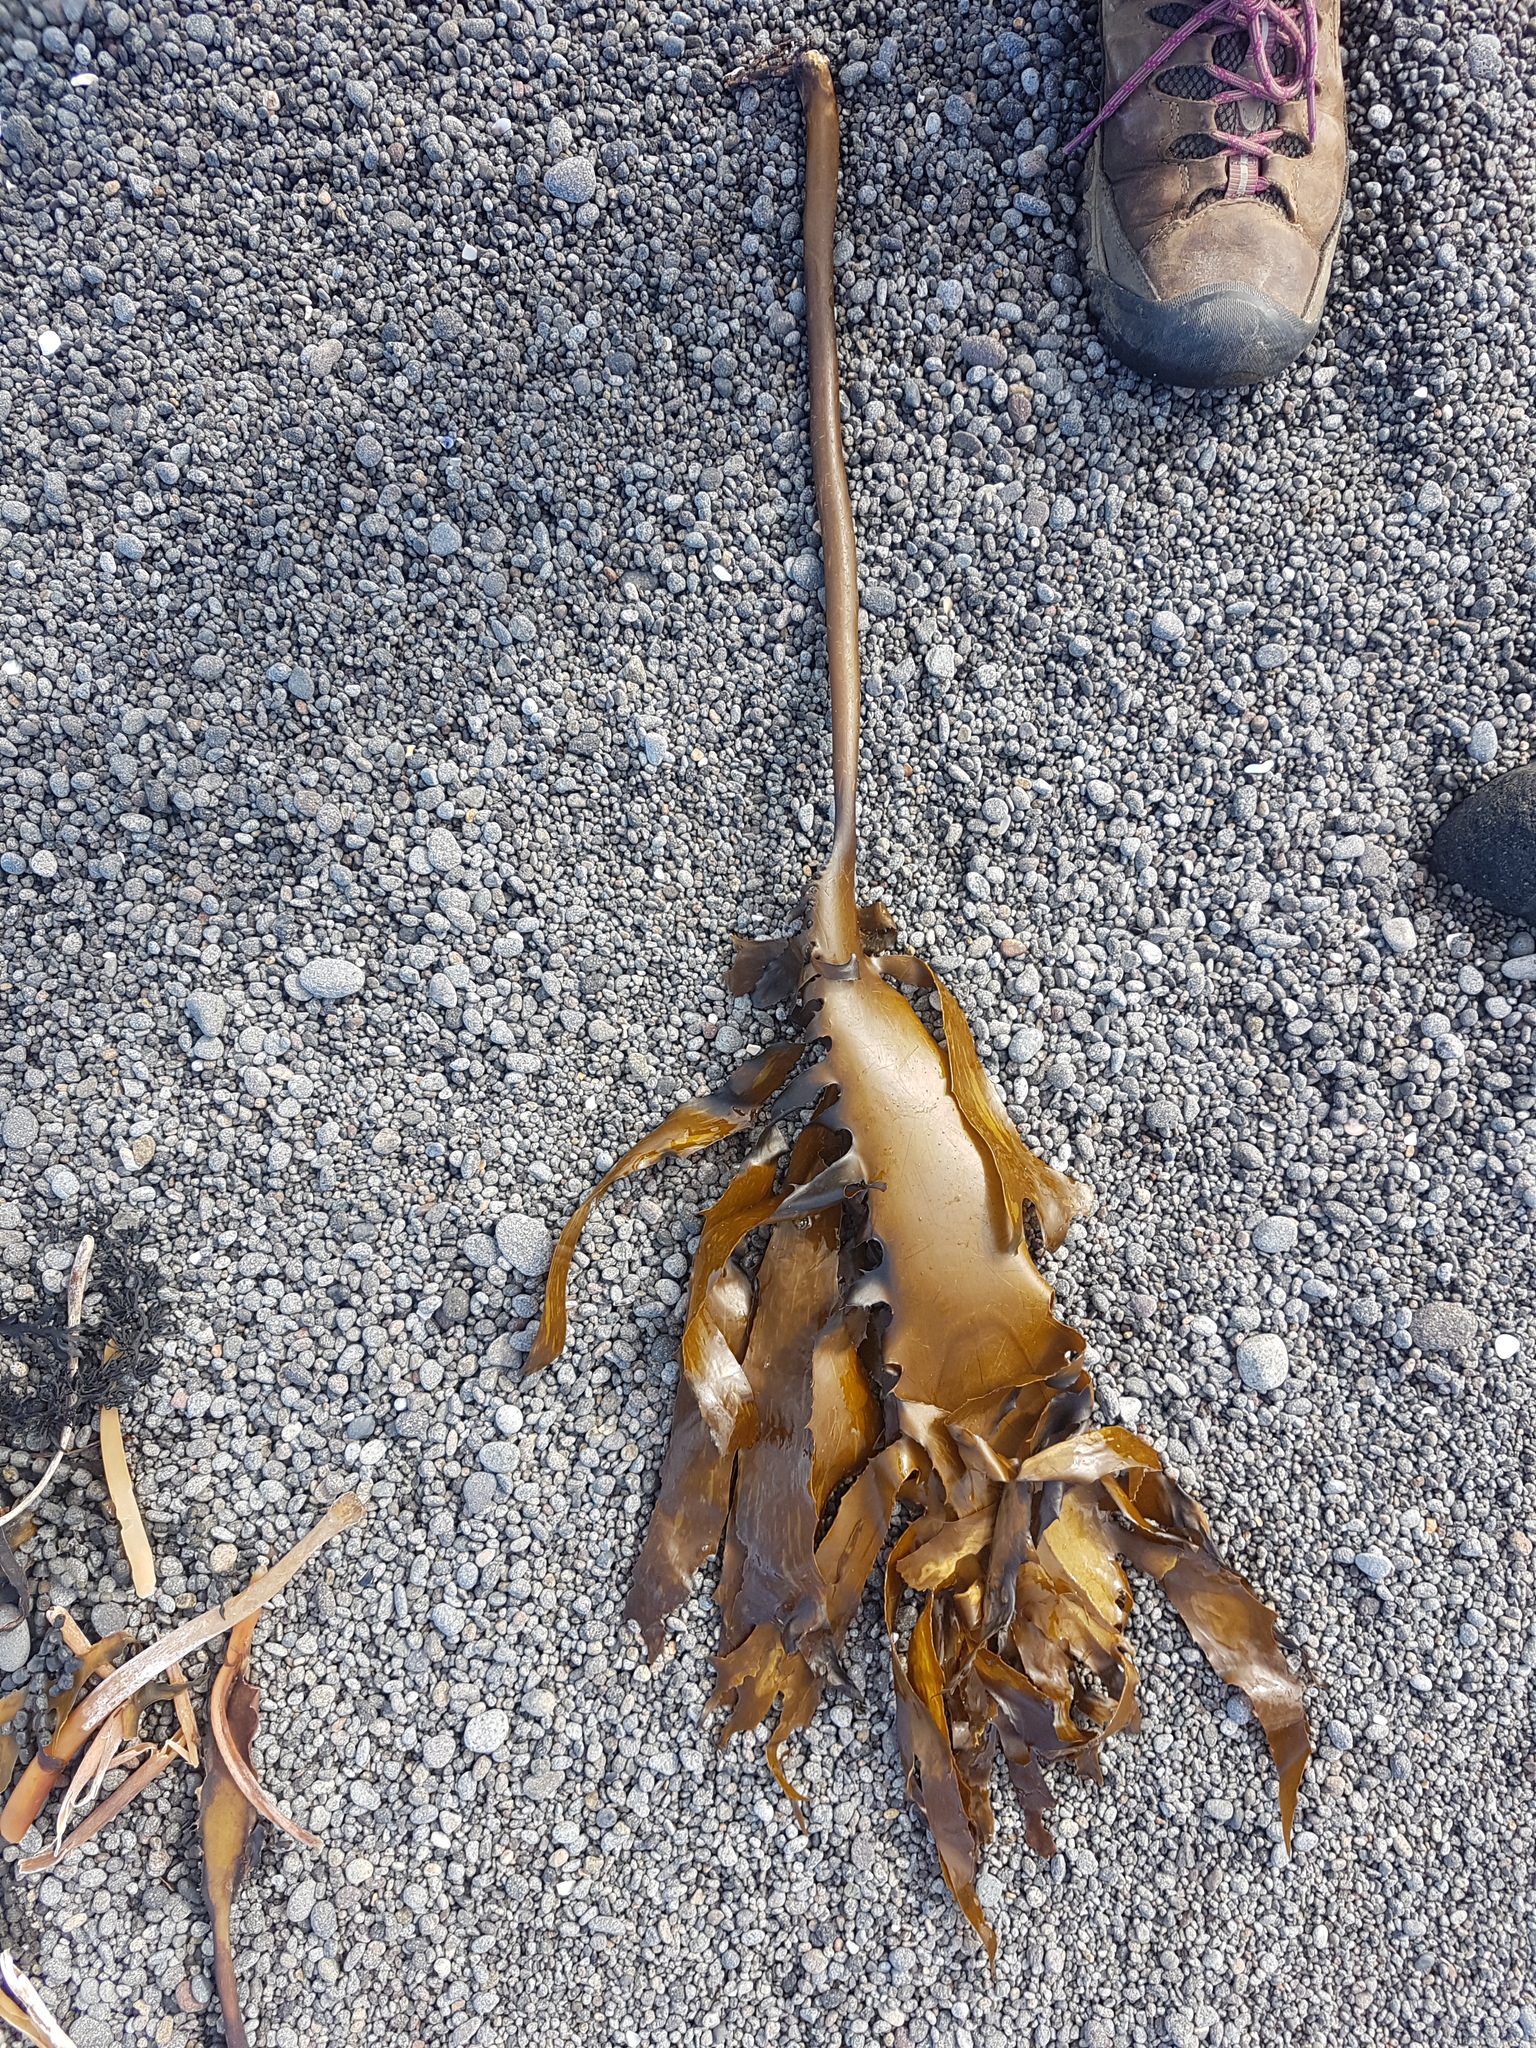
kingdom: Chromista
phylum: Ochrophyta
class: Phaeophyceae
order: Laminariales
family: Lessoniaceae
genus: Ecklonia
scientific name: Ecklonia radiata
